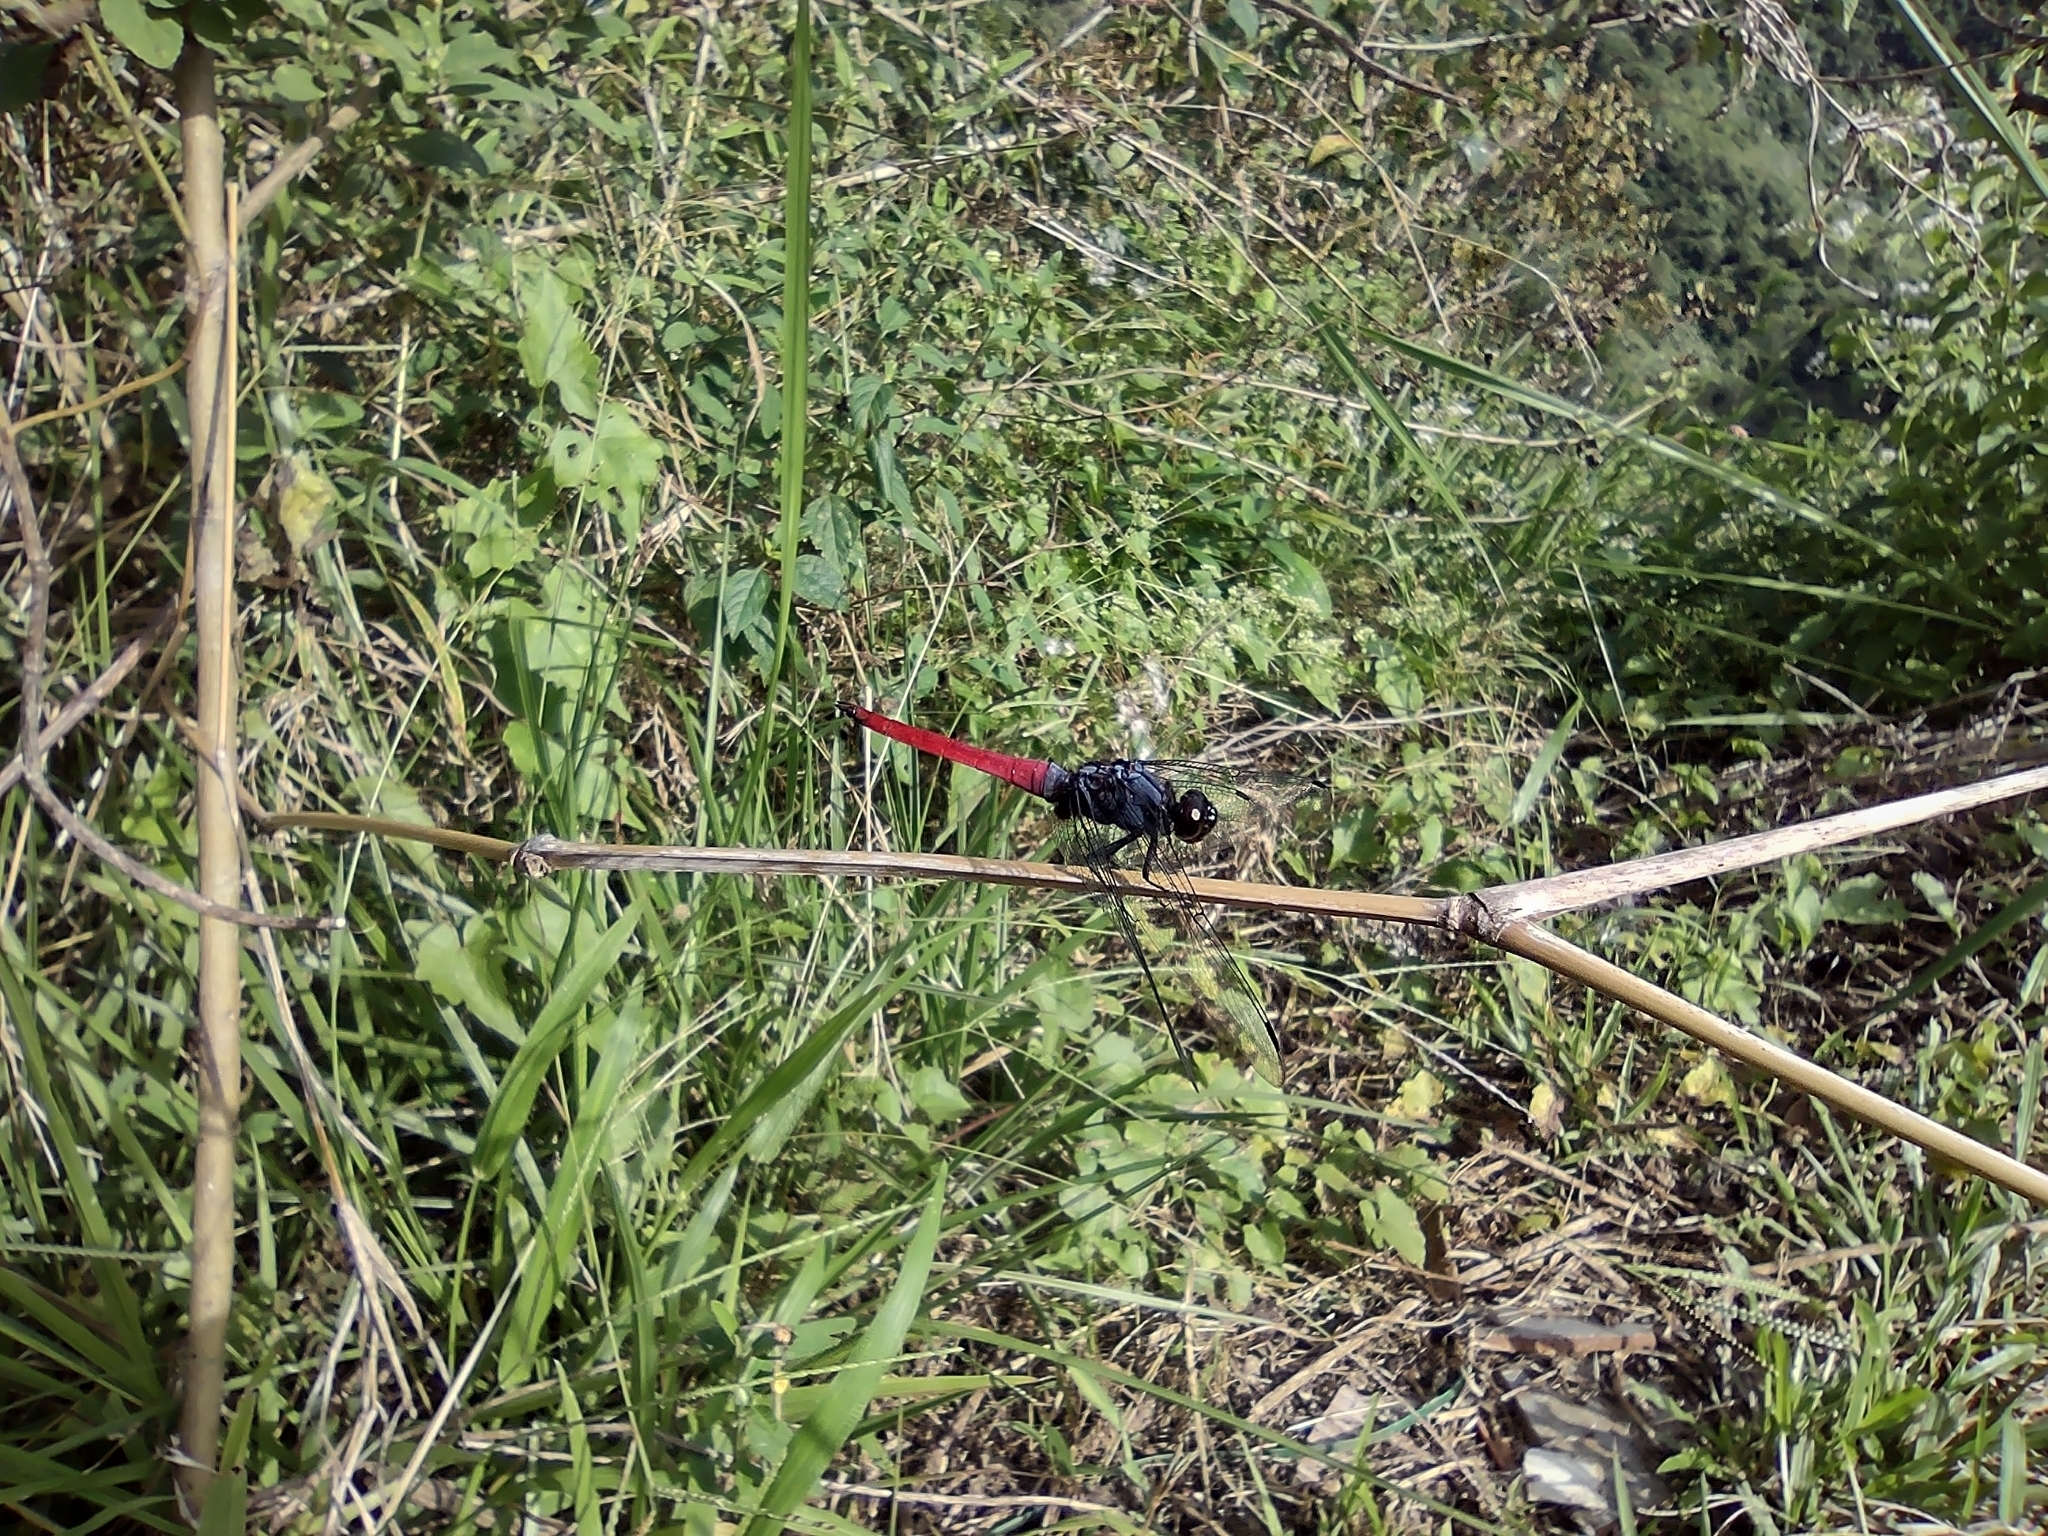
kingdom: Animalia
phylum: Arthropoda
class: Insecta
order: Odonata
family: Libellulidae
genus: Orthetrum
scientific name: Orthetrum pruinosum
